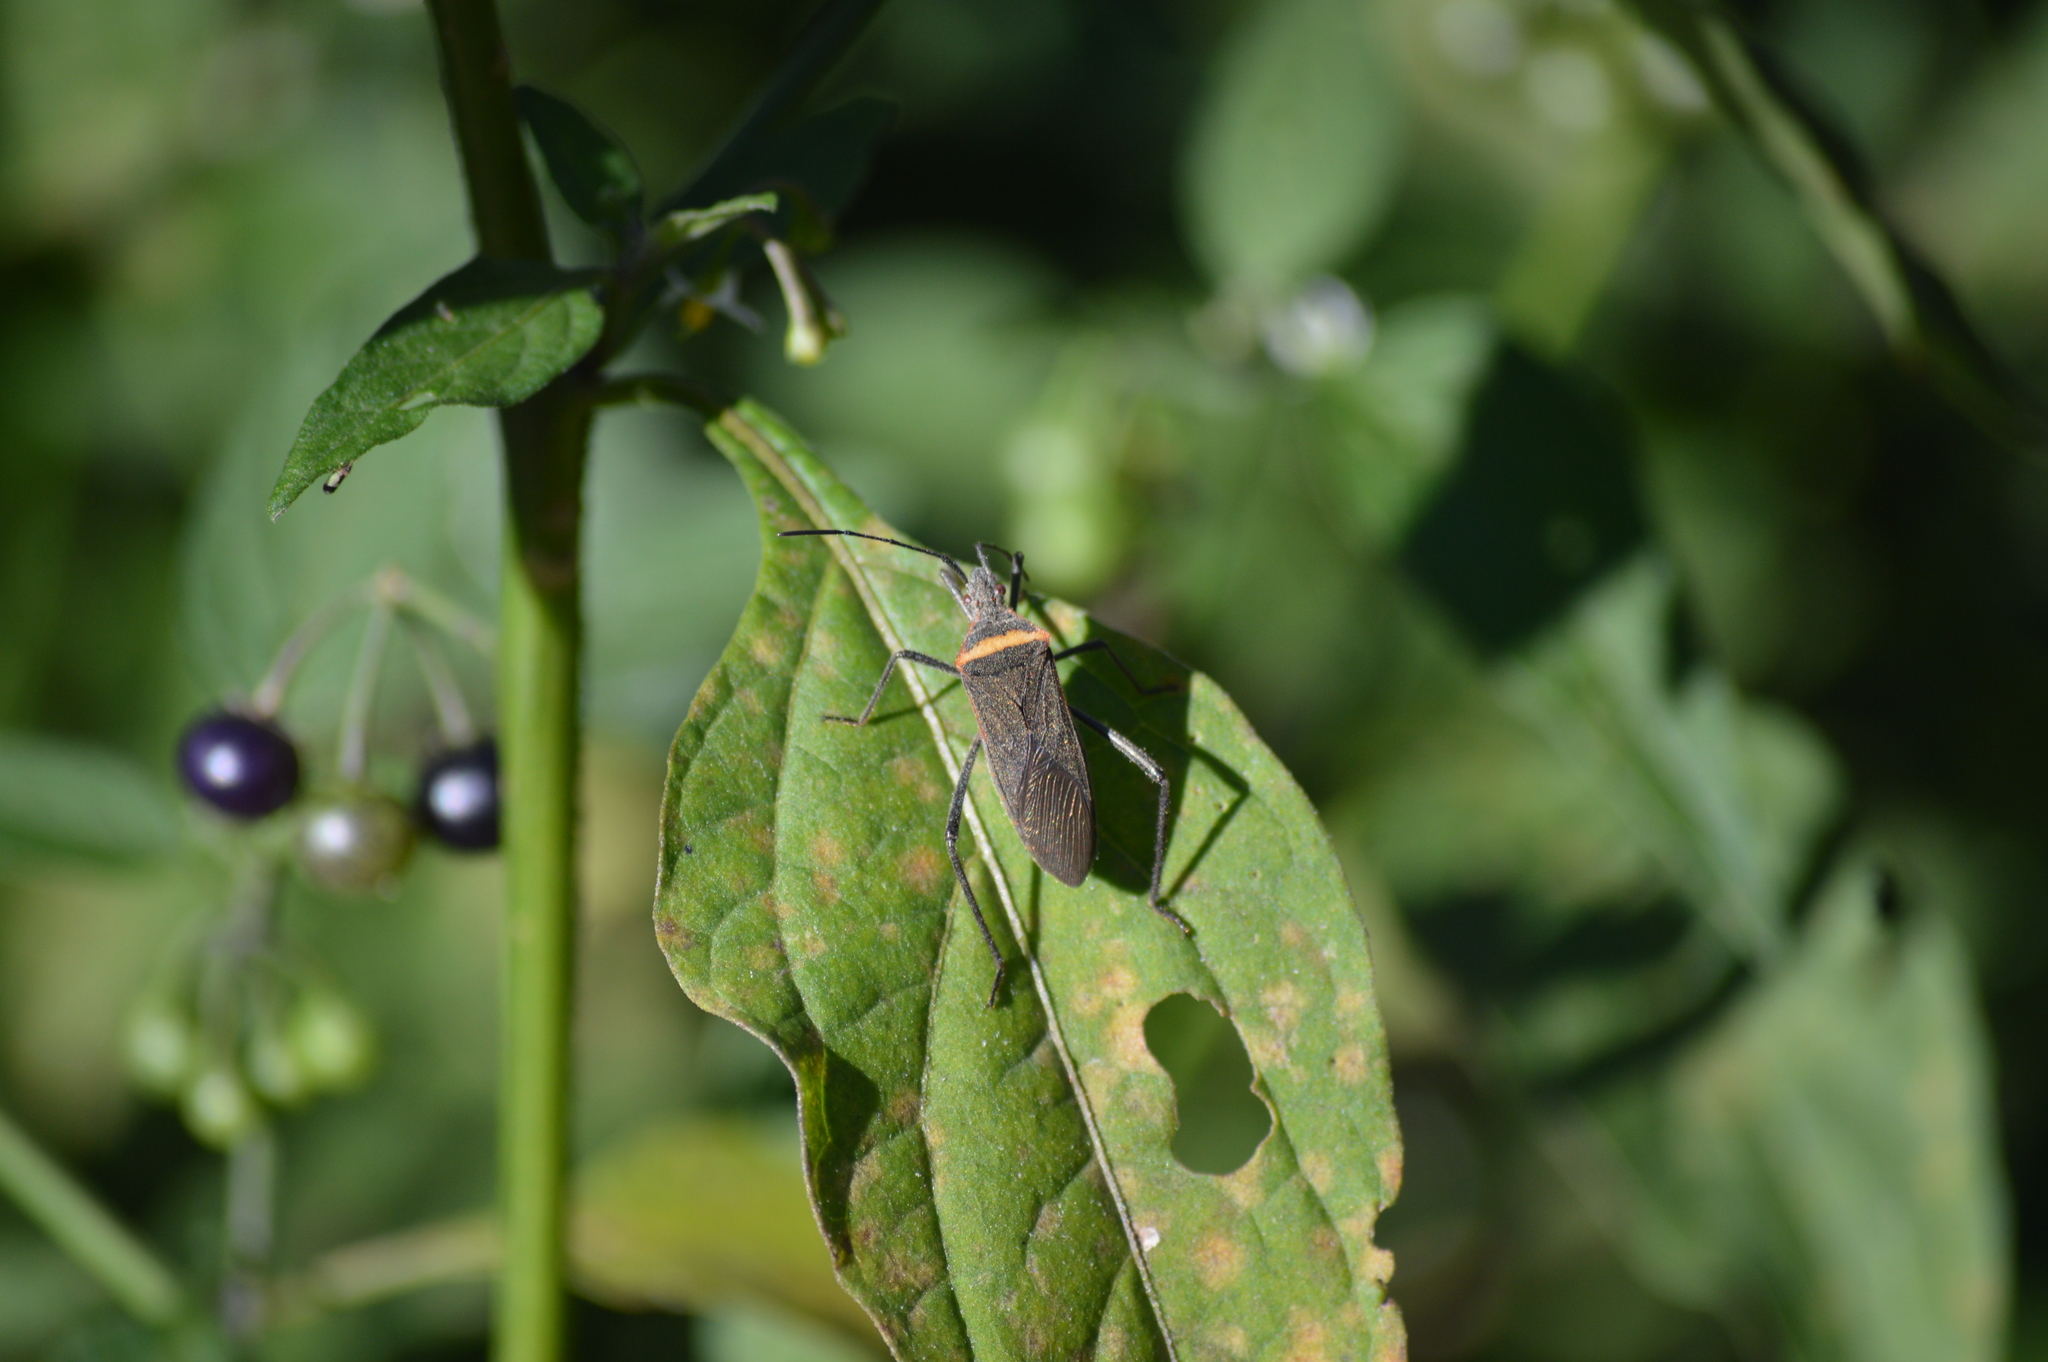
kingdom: Animalia
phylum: Arthropoda
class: Insecta
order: Hemiptera
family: Coreidae
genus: Phthiacnemia
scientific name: Phthiacnemia picta
